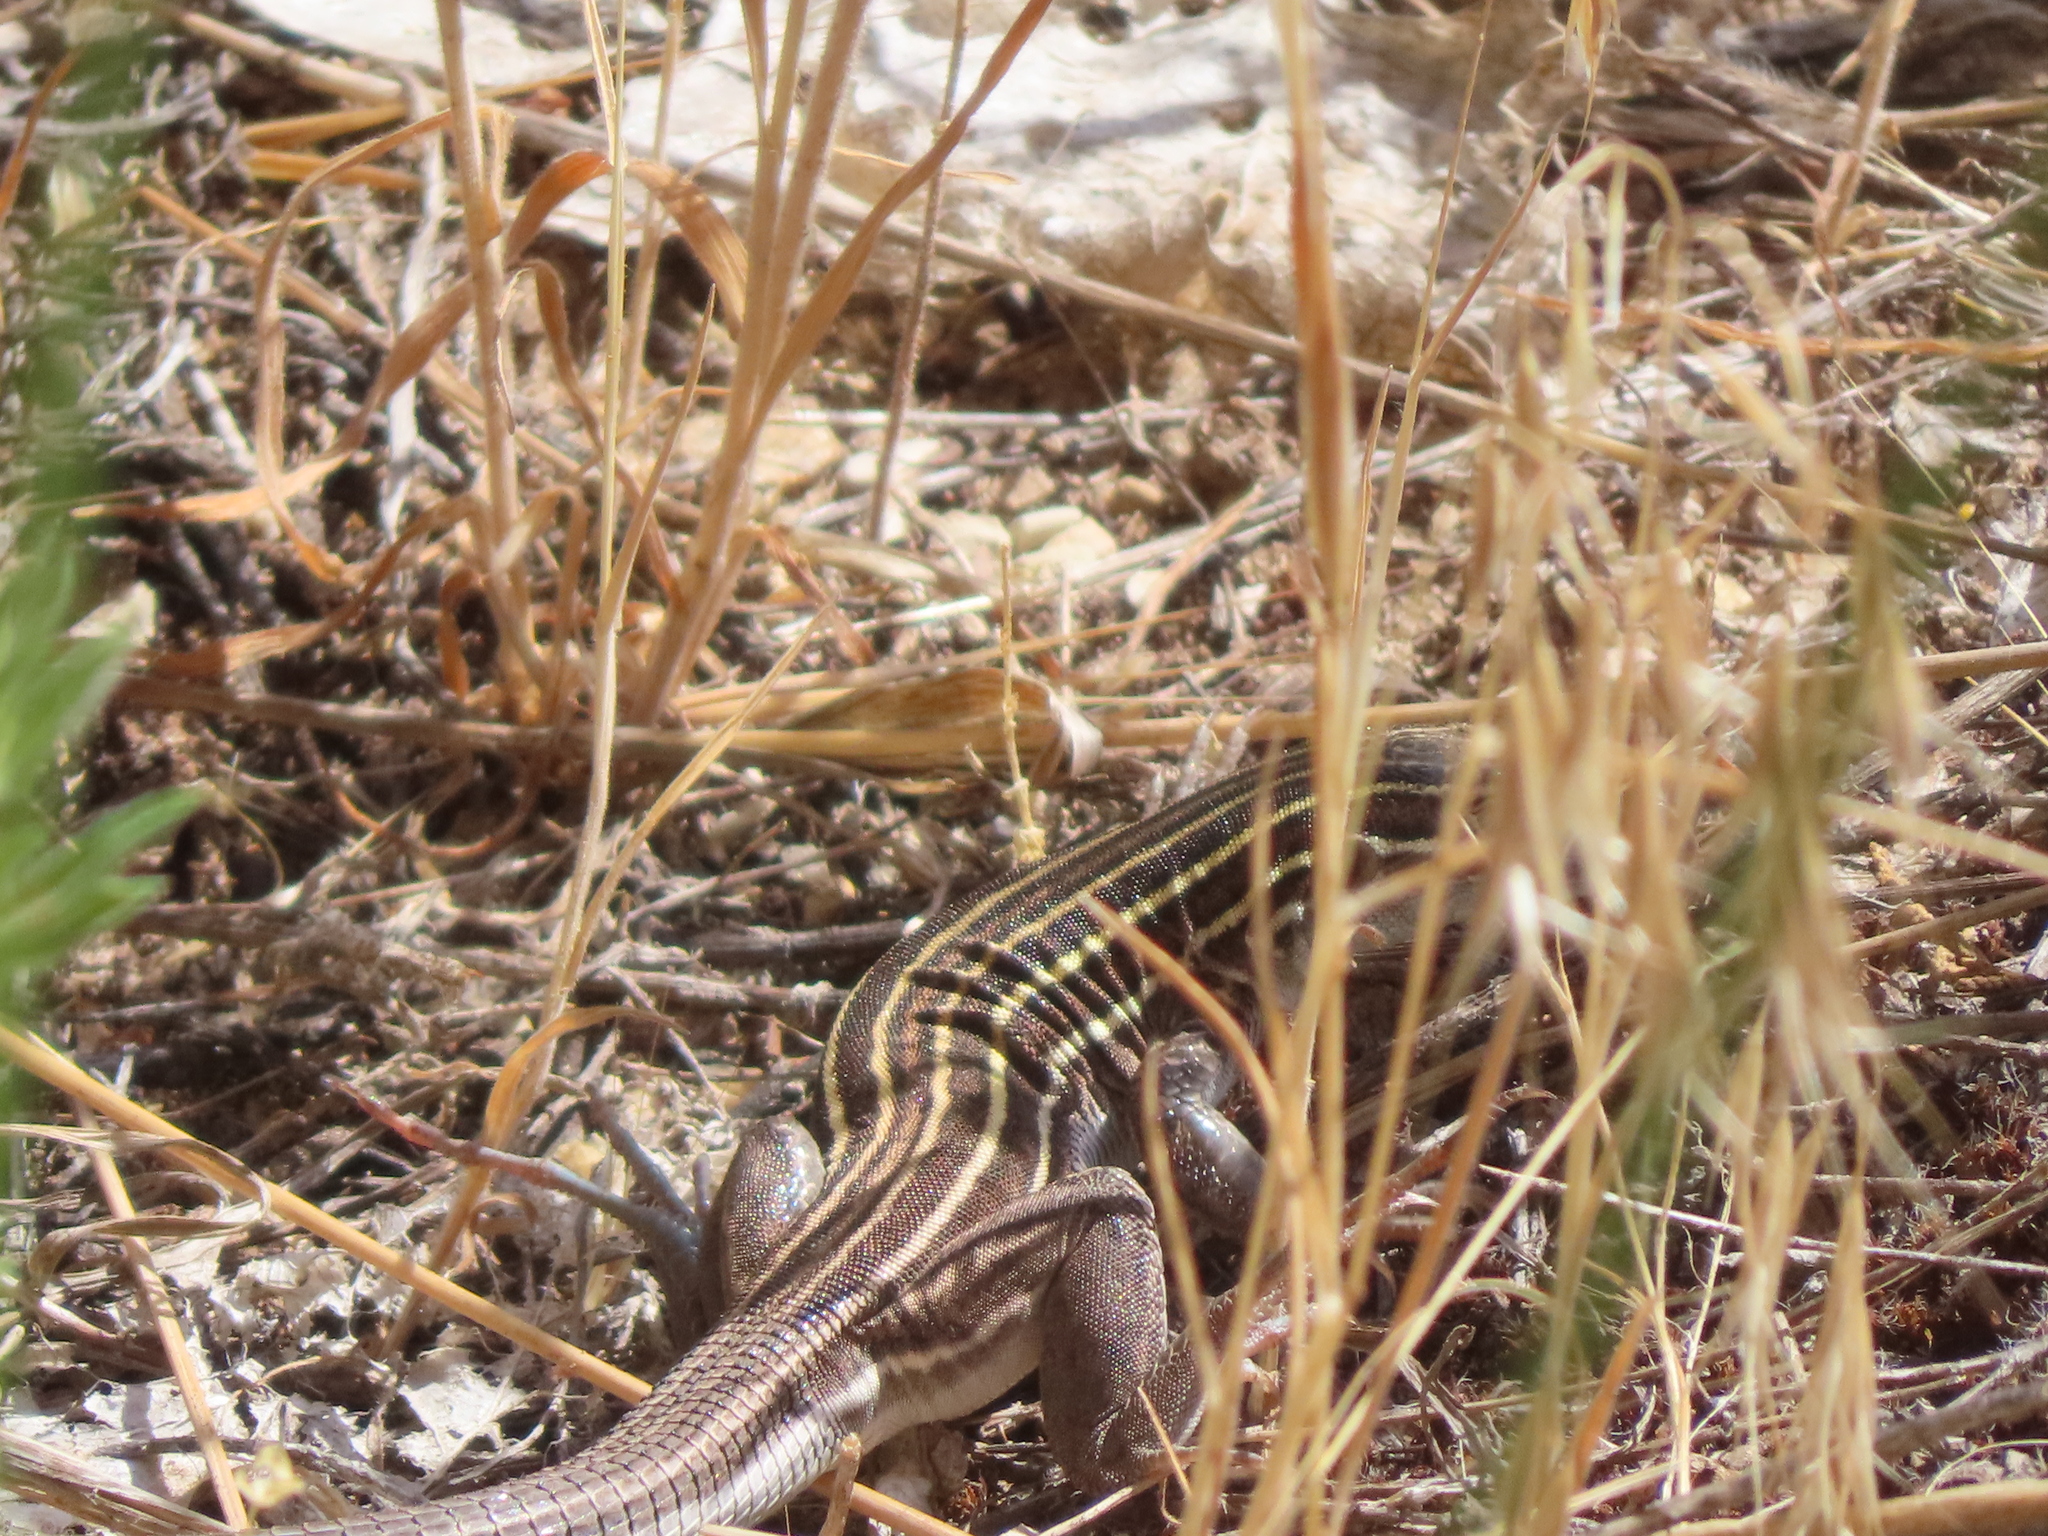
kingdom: Animalia
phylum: Chordata
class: Squamata
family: Teiidae
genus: Aspidoscelis
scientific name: Aspidoscelis velox
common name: Plateau striped whiptail
